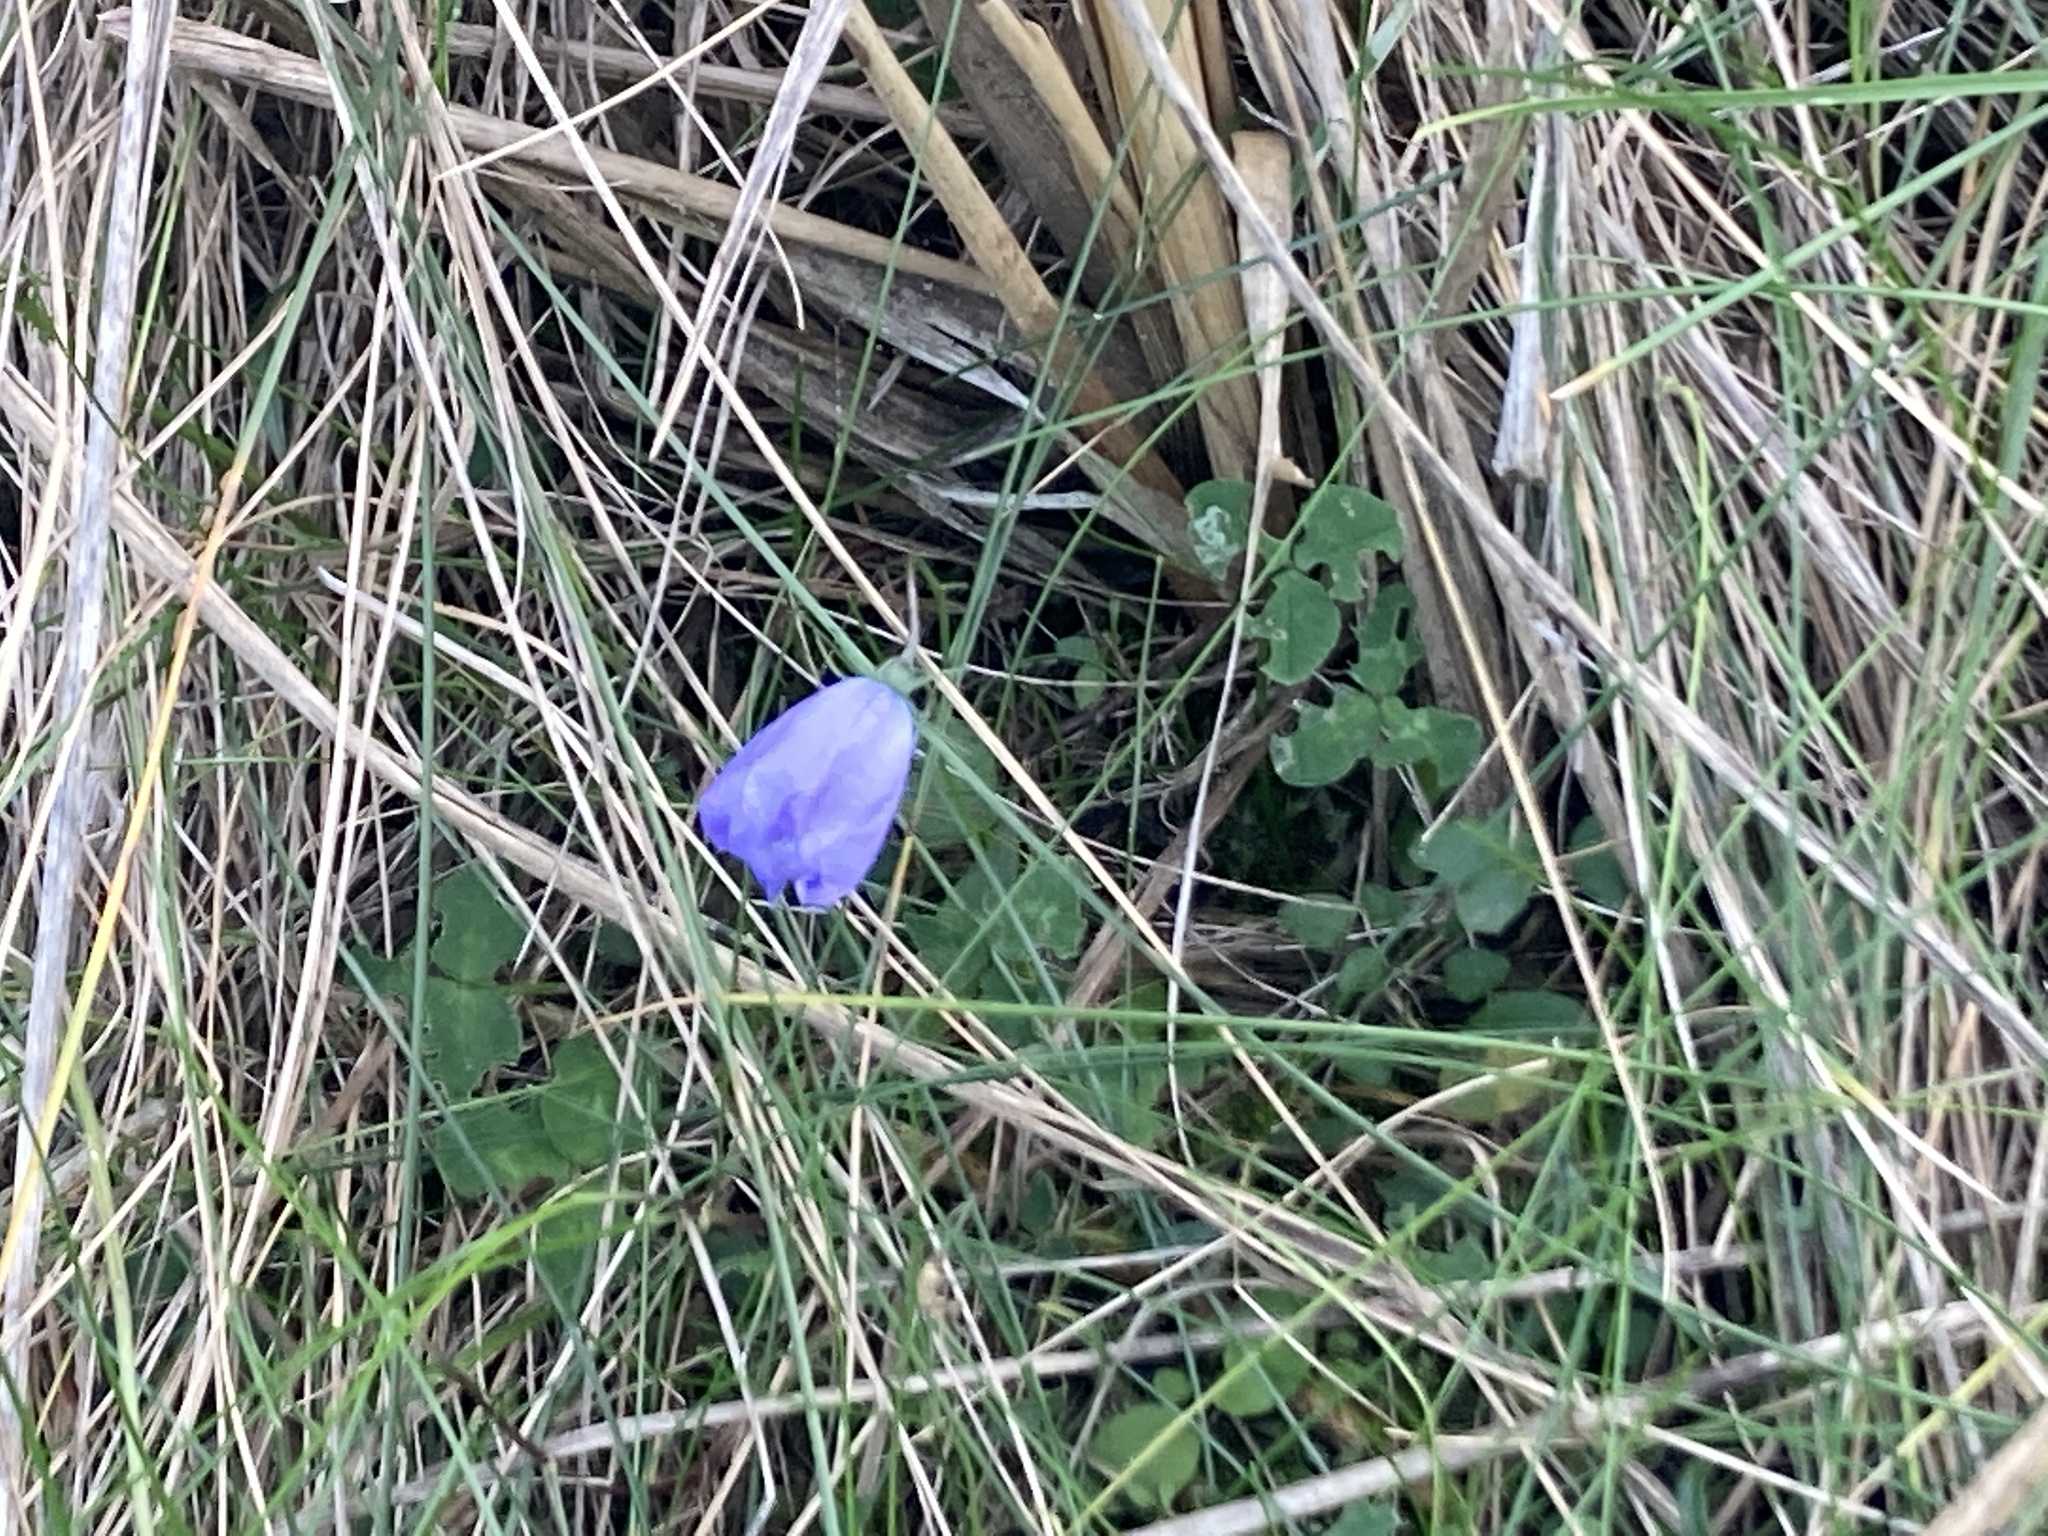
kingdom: Plantae
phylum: Tracheophyta
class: Magnoliopsida
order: Asterales
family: Campanulaceae
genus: Campanula
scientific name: Campanula rotundifolia
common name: Harebell
